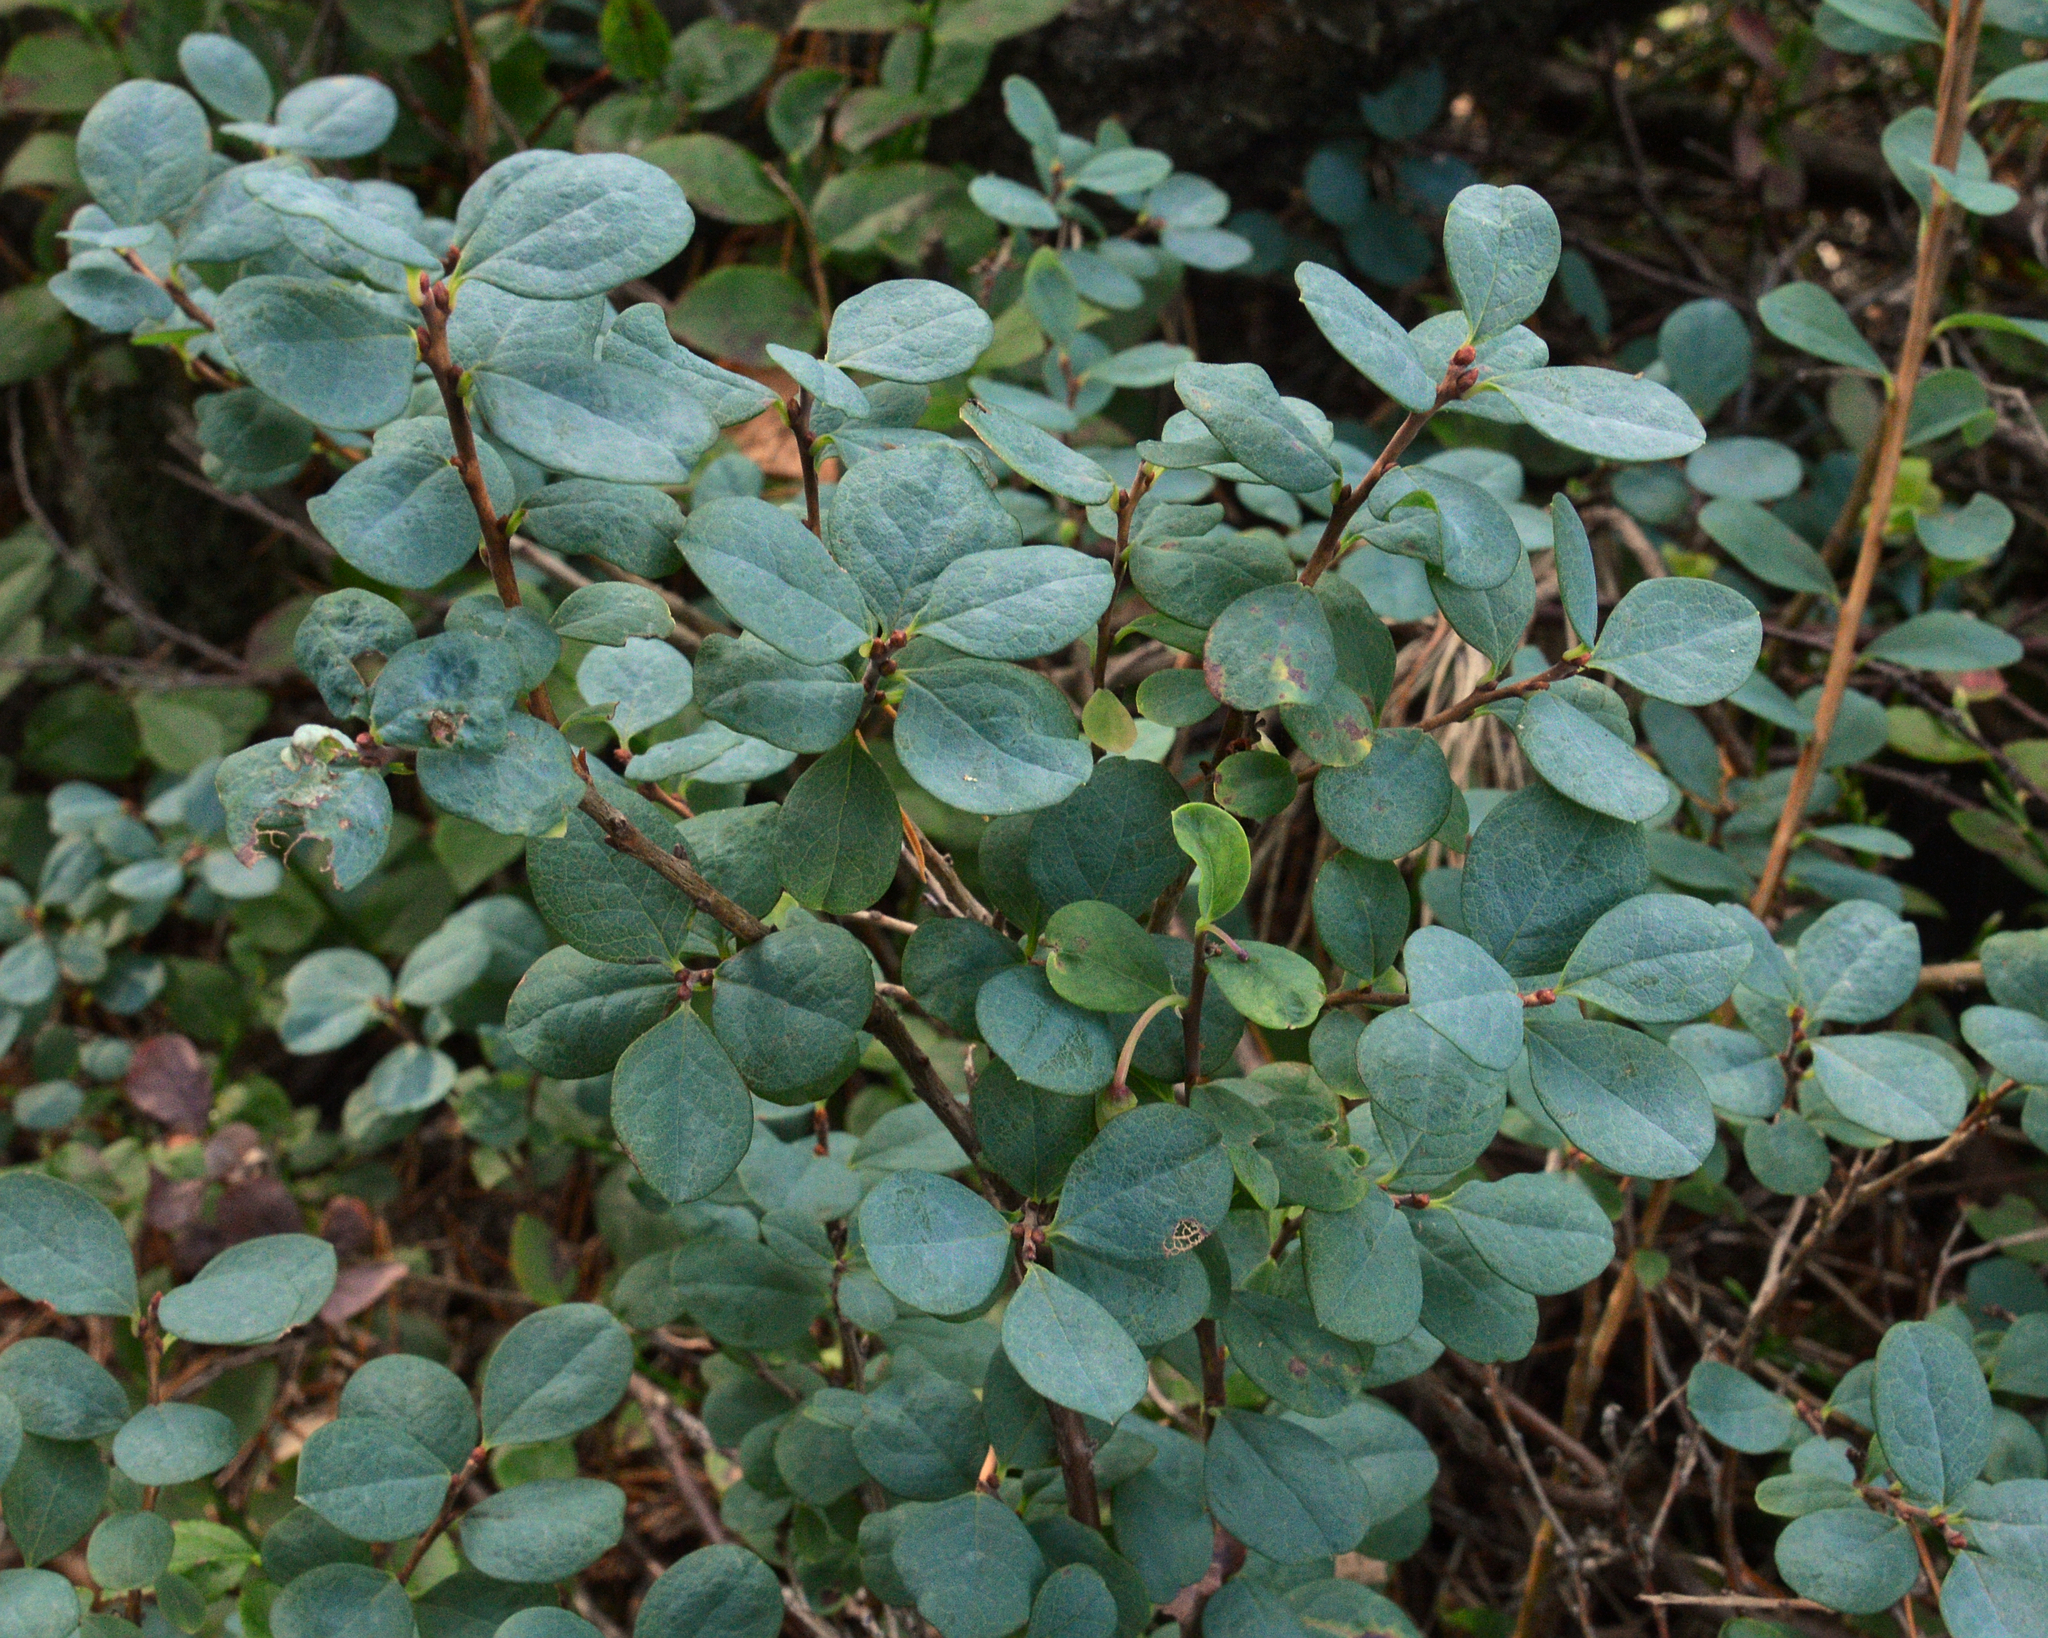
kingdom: Plantae
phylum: Tracheophyta
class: Magnoliopsida
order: Ericales
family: Ericaceae
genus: Vaccinium
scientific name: Vaccinium uliginosum
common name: Bog bilberry
